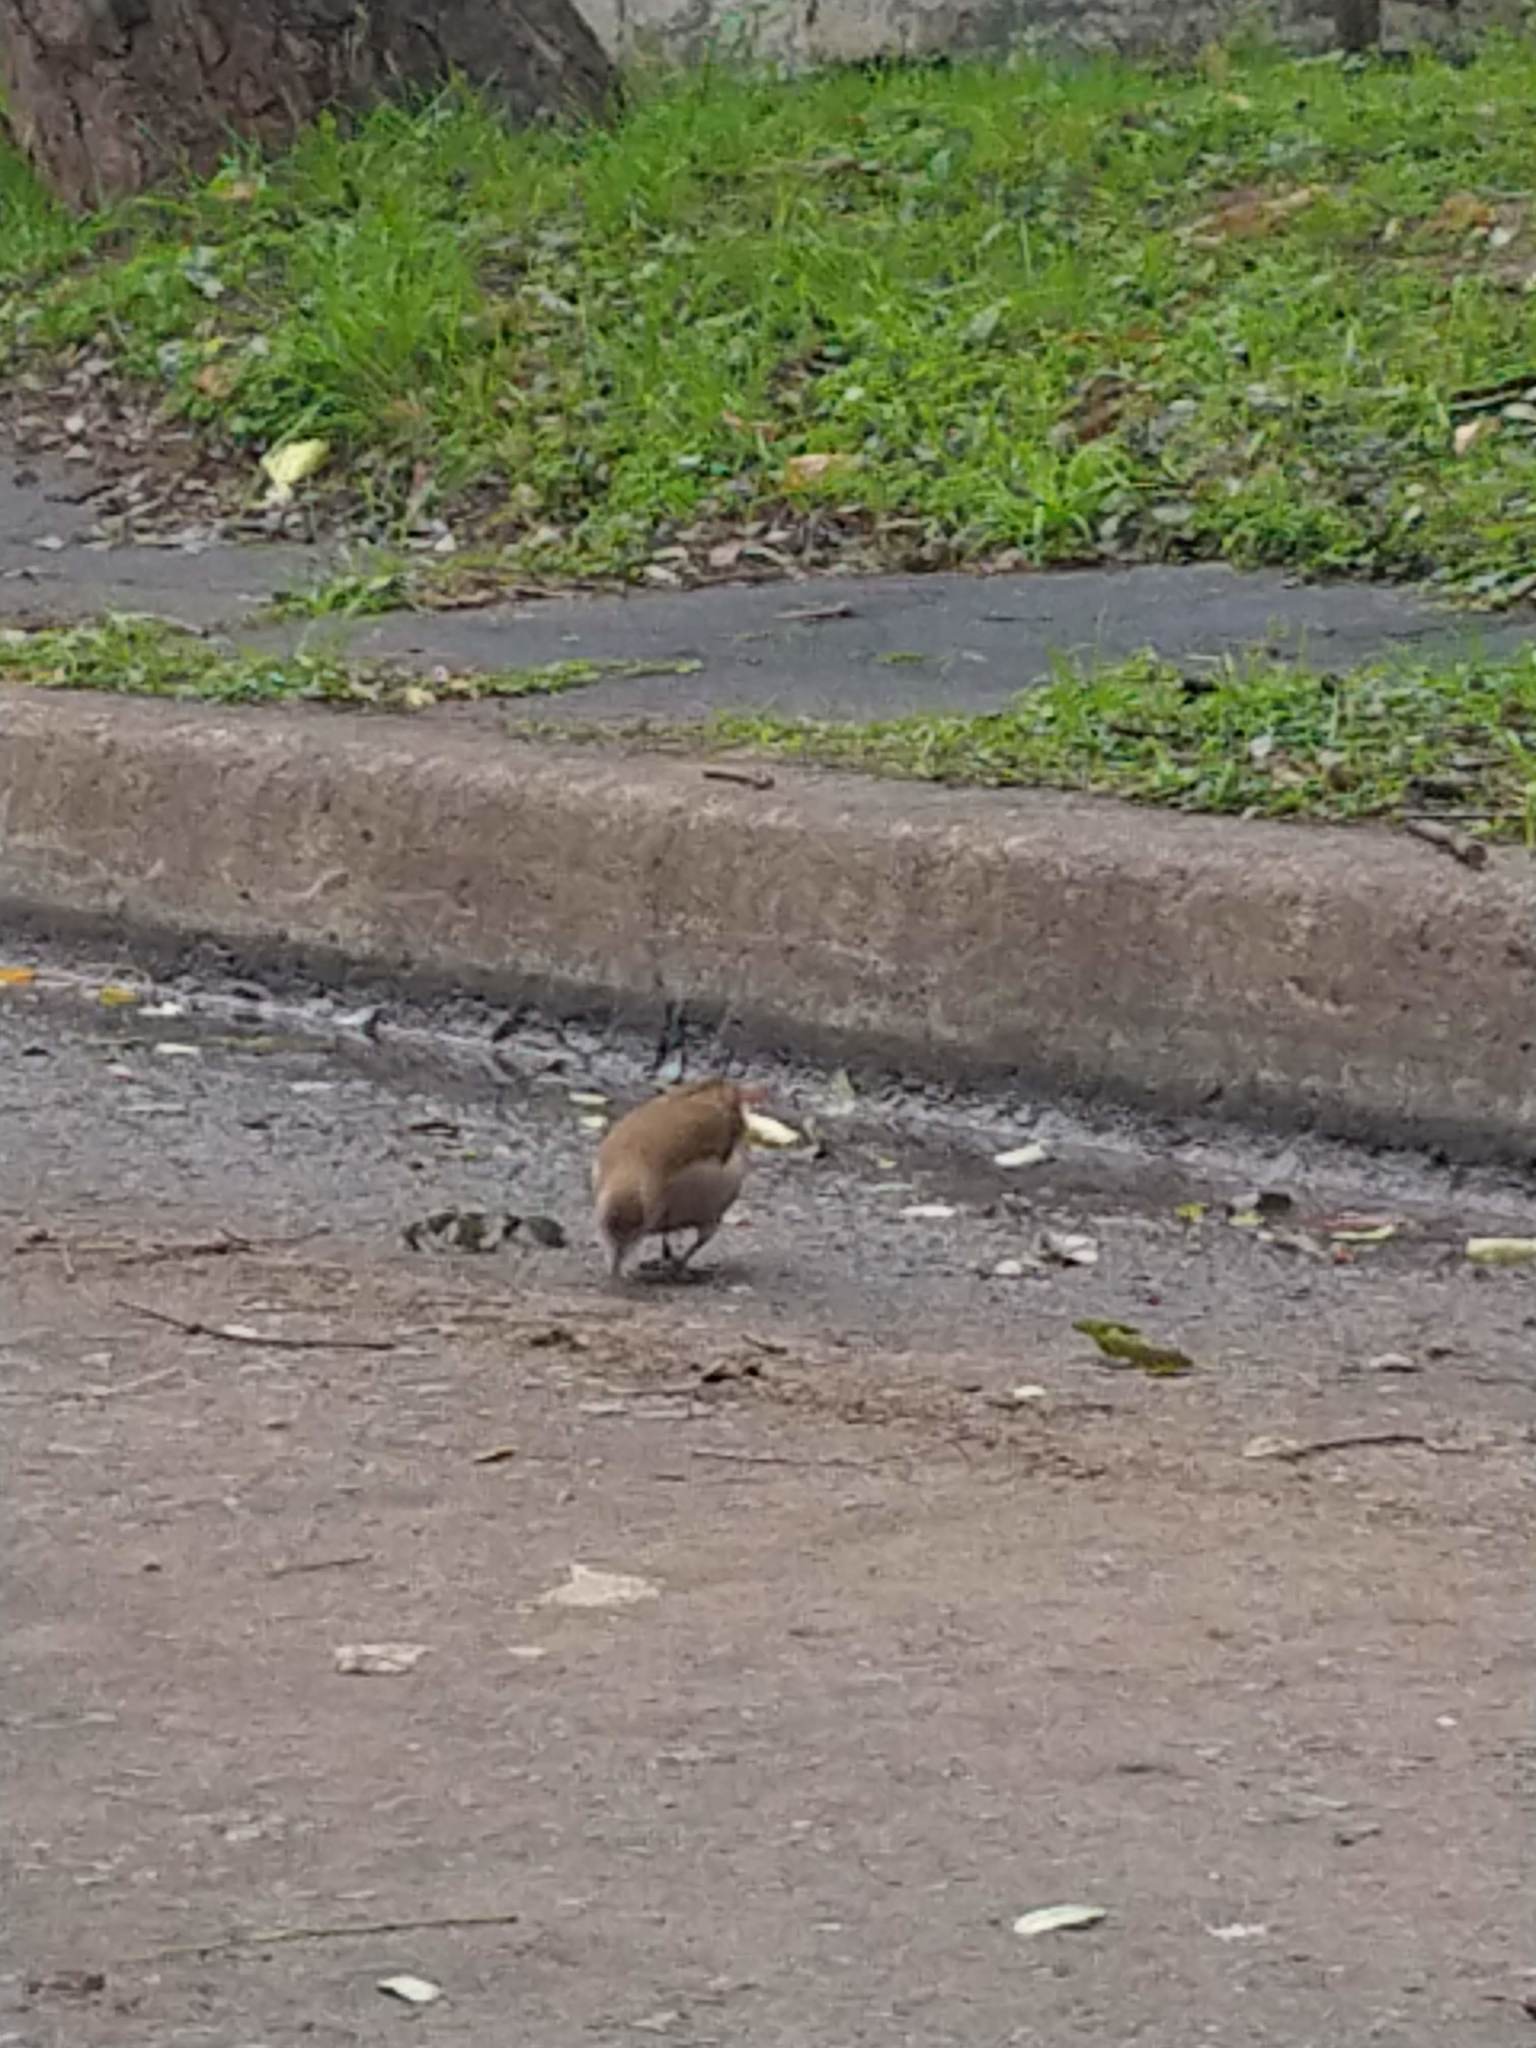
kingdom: Animalia
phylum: Chordata
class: Aves
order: Passeriformes
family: Furnariidae
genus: Furnarius
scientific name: Furnarius rufus
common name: Rufous hornero
